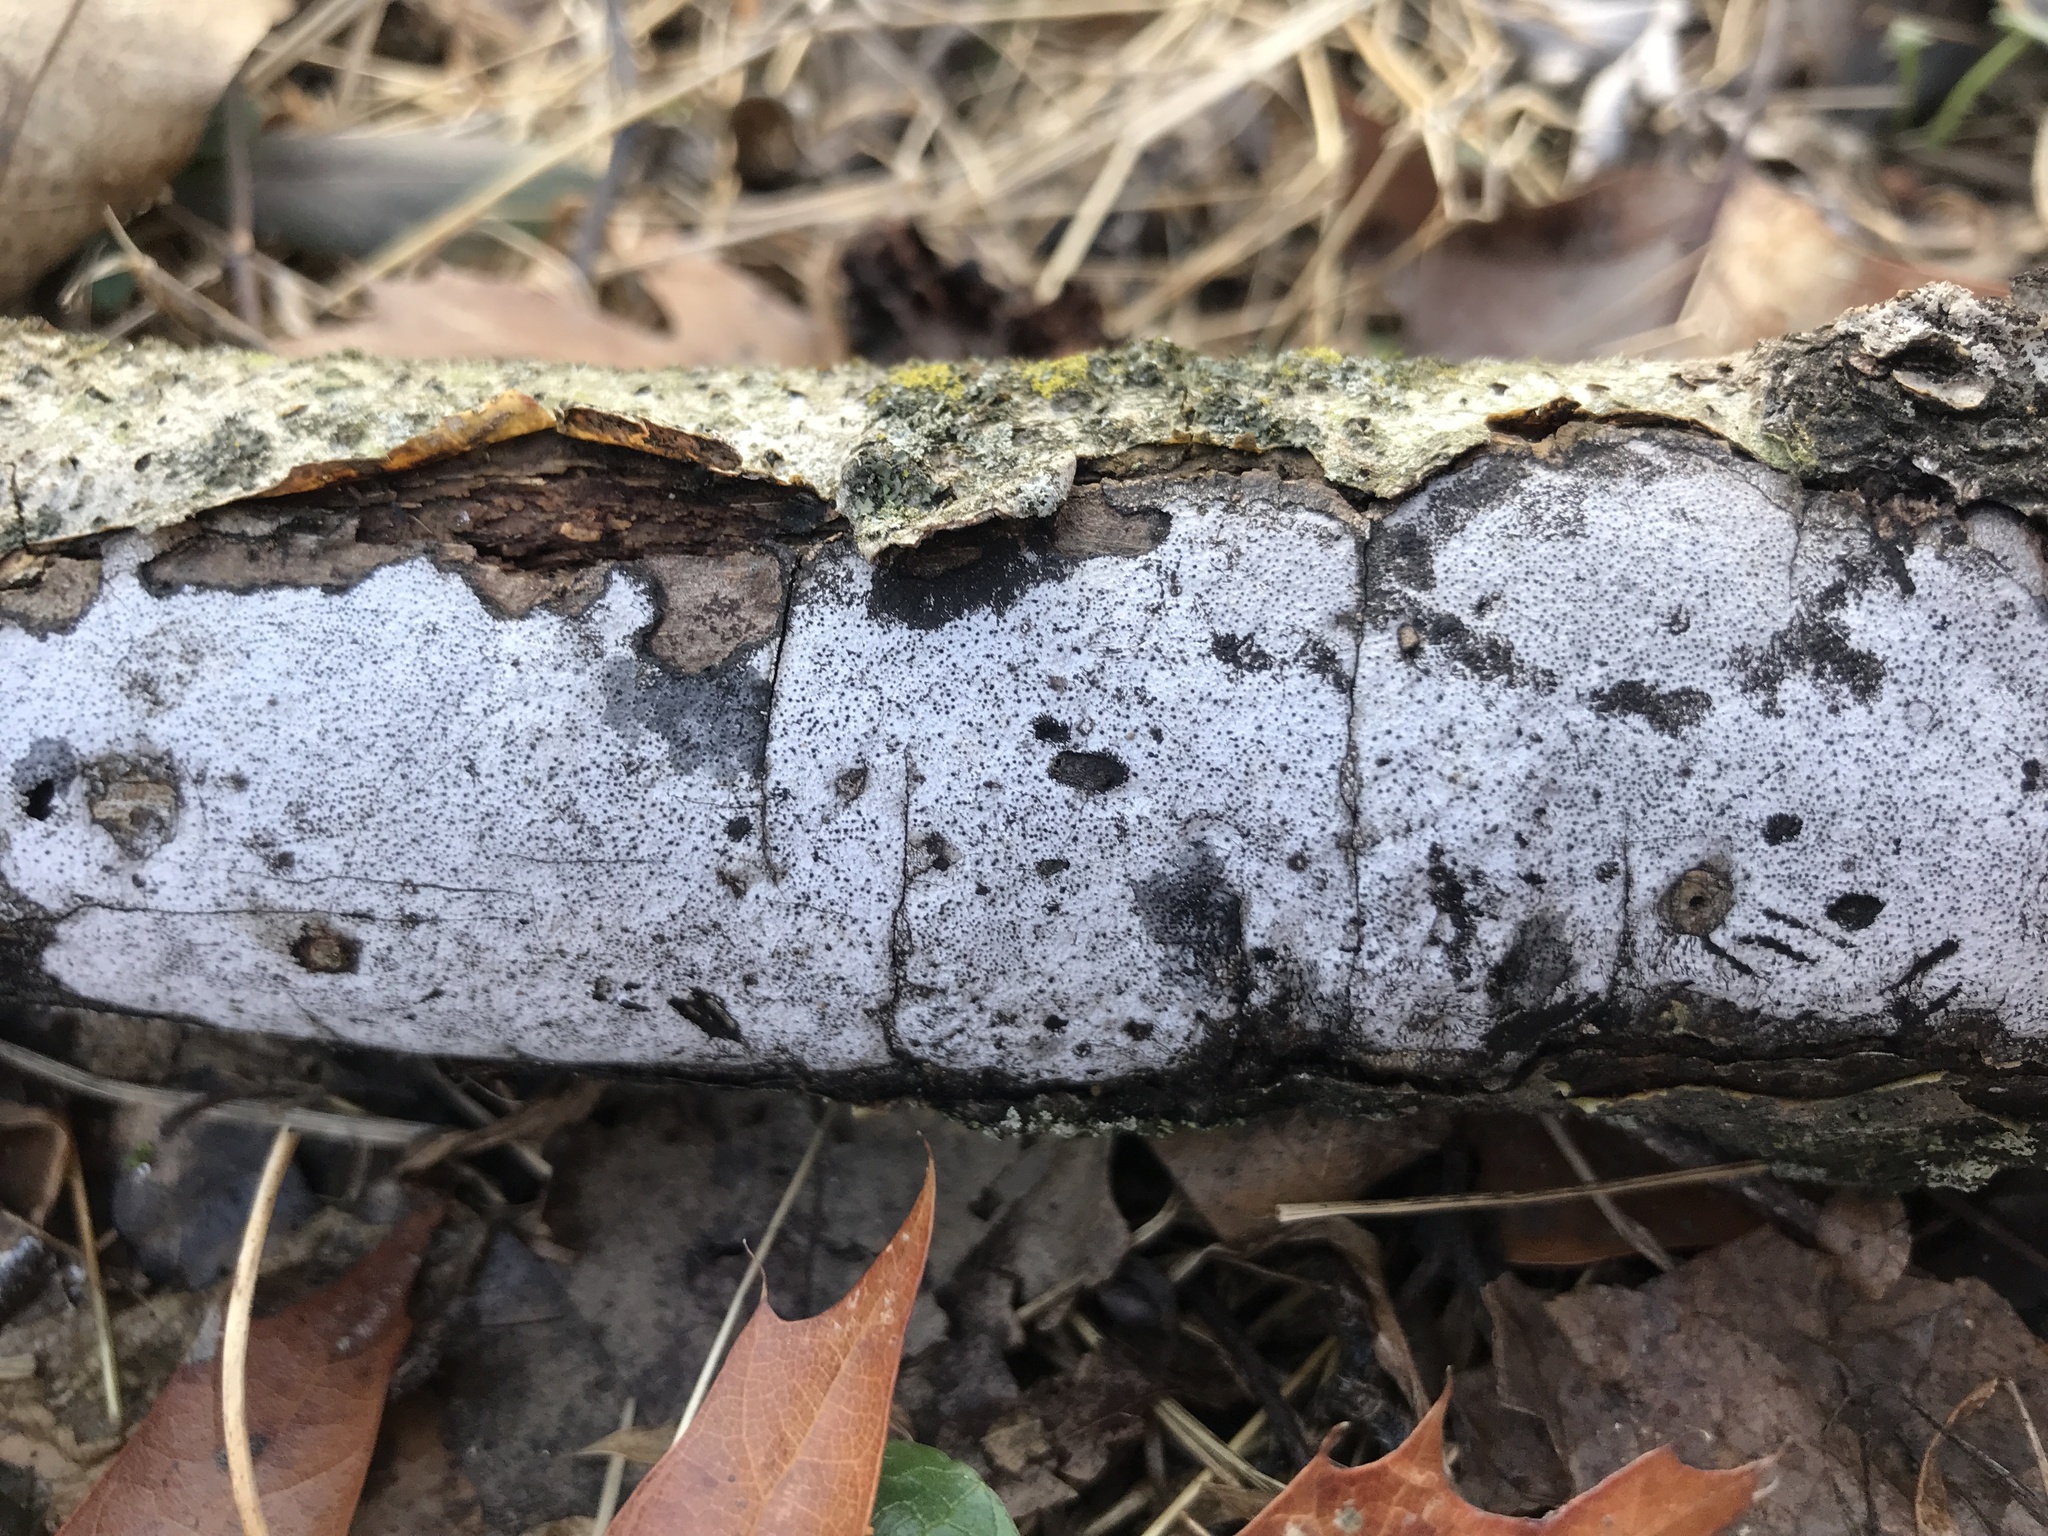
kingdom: Fungi
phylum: Ascomycota
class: Sordariomycetes
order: Xylariales
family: Graphostromataceae
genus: Biscogniauxia
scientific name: Biscogniauxia atropunctata
